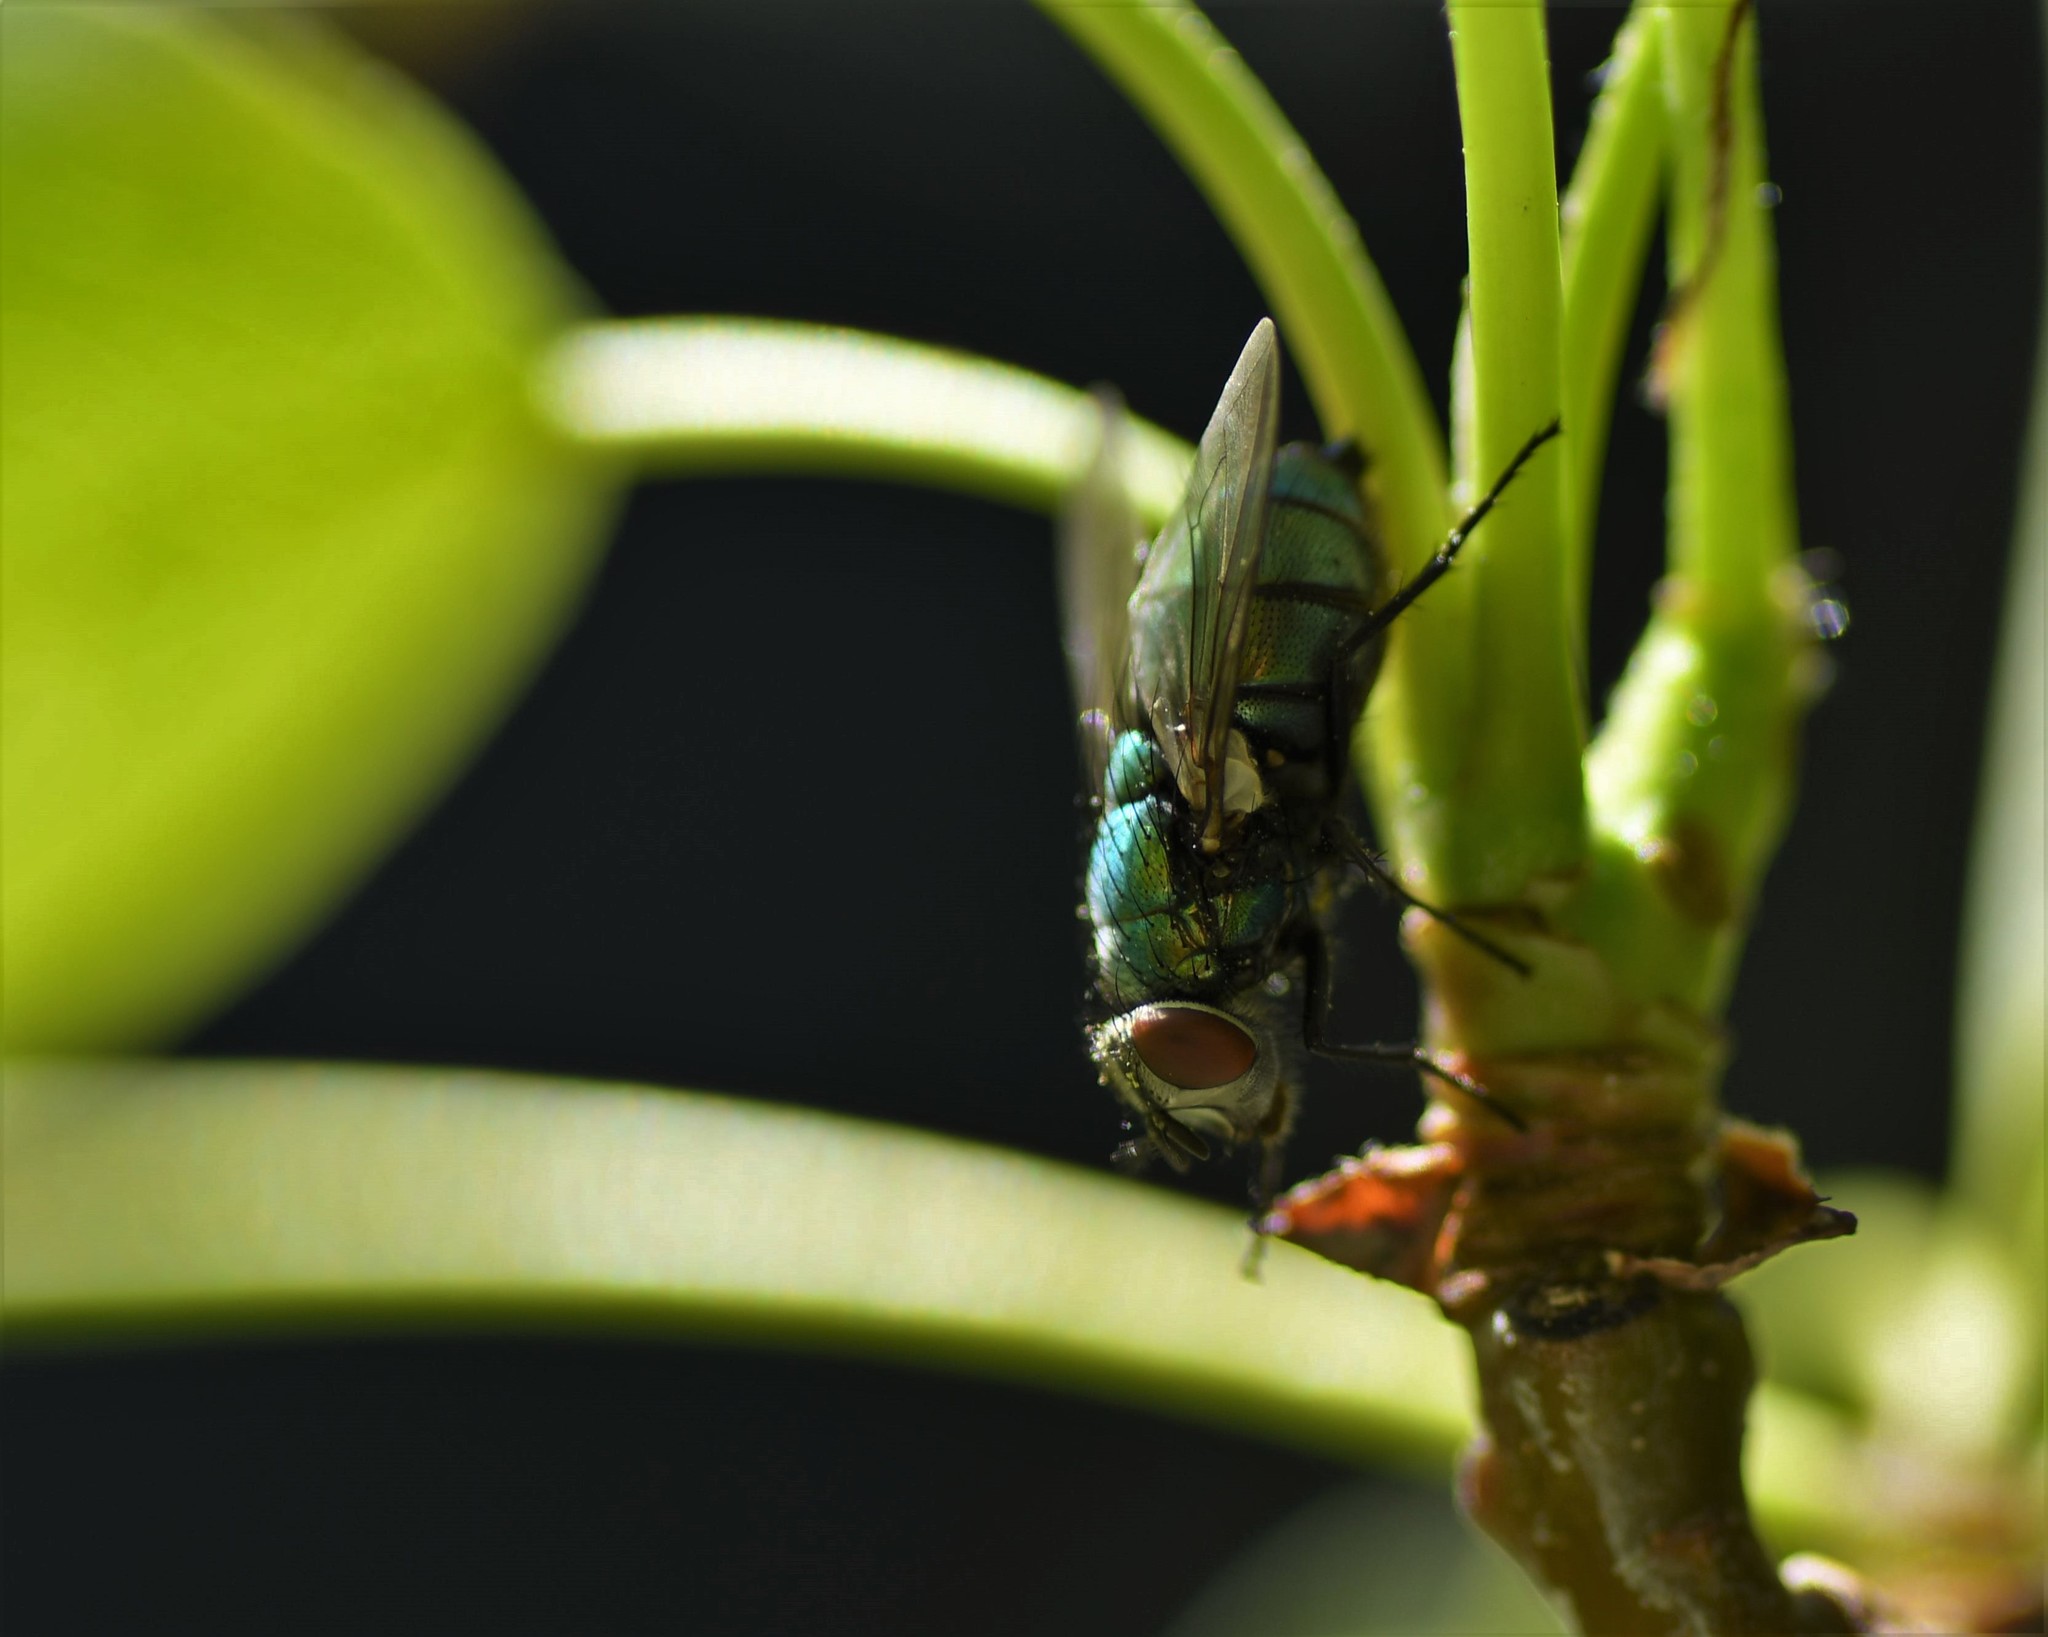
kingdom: Animalia
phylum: Arthropoda
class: Insecta
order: Diptera
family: Calliphoridae
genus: Lucilia
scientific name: Lucilia sericata
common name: Blow fly
